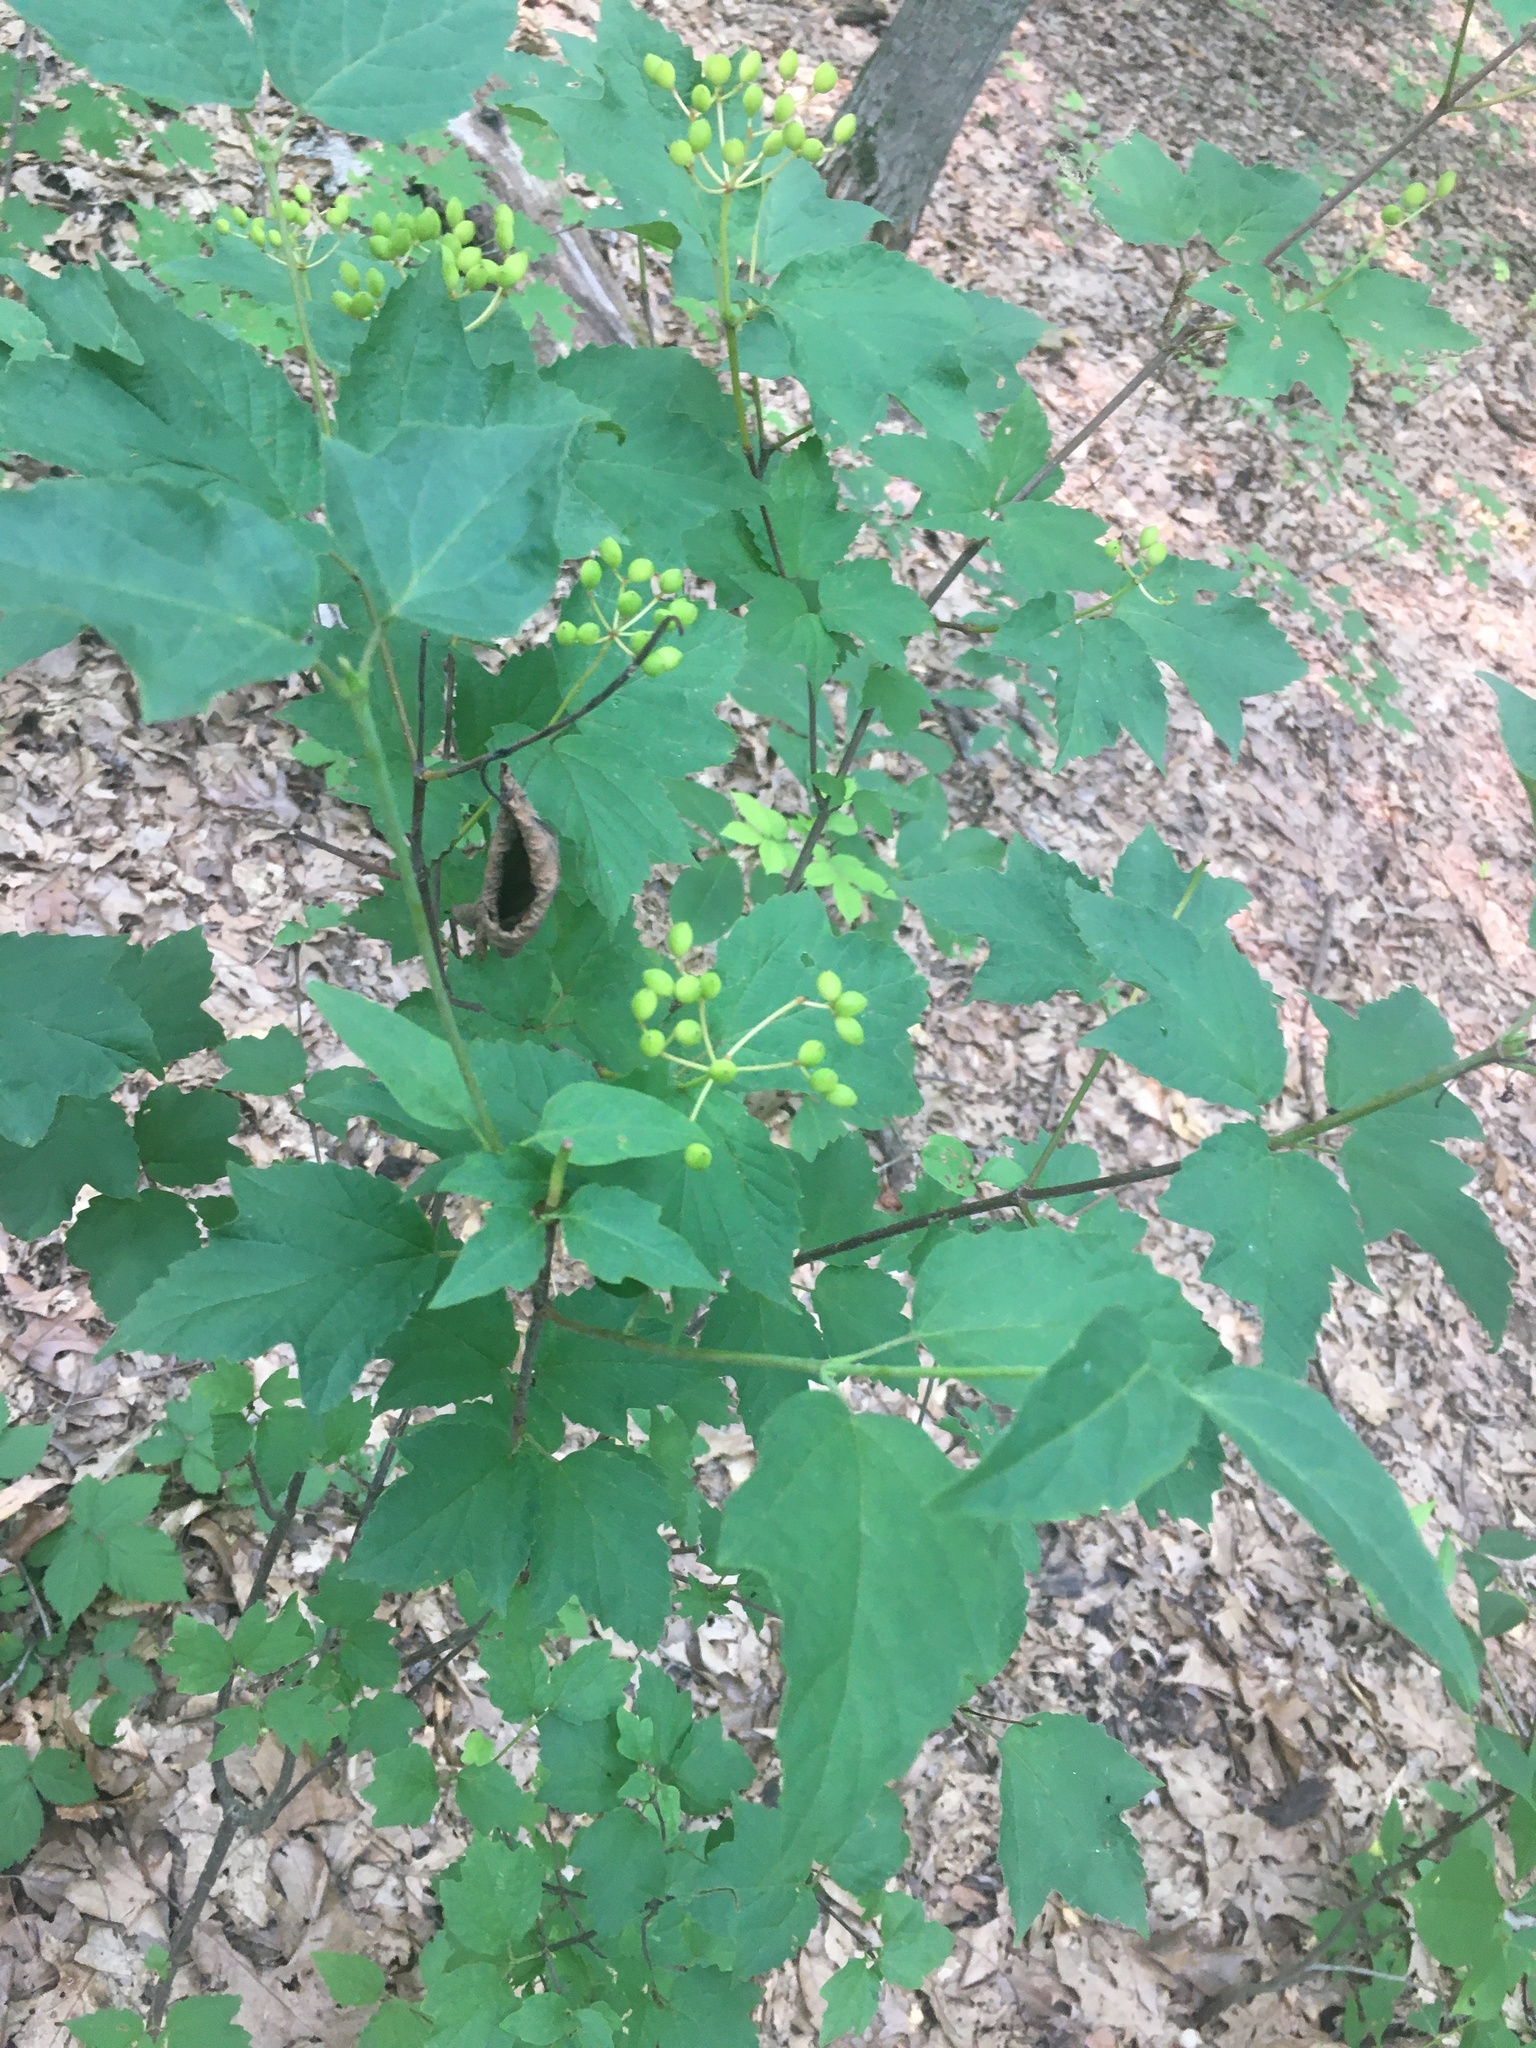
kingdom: Plantae
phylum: Tracheophyta
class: Magnoliopsida
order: Dipsacales
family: Viburnaceae
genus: Viburnum
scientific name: Viburnum acerifolium
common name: Dockmackie
